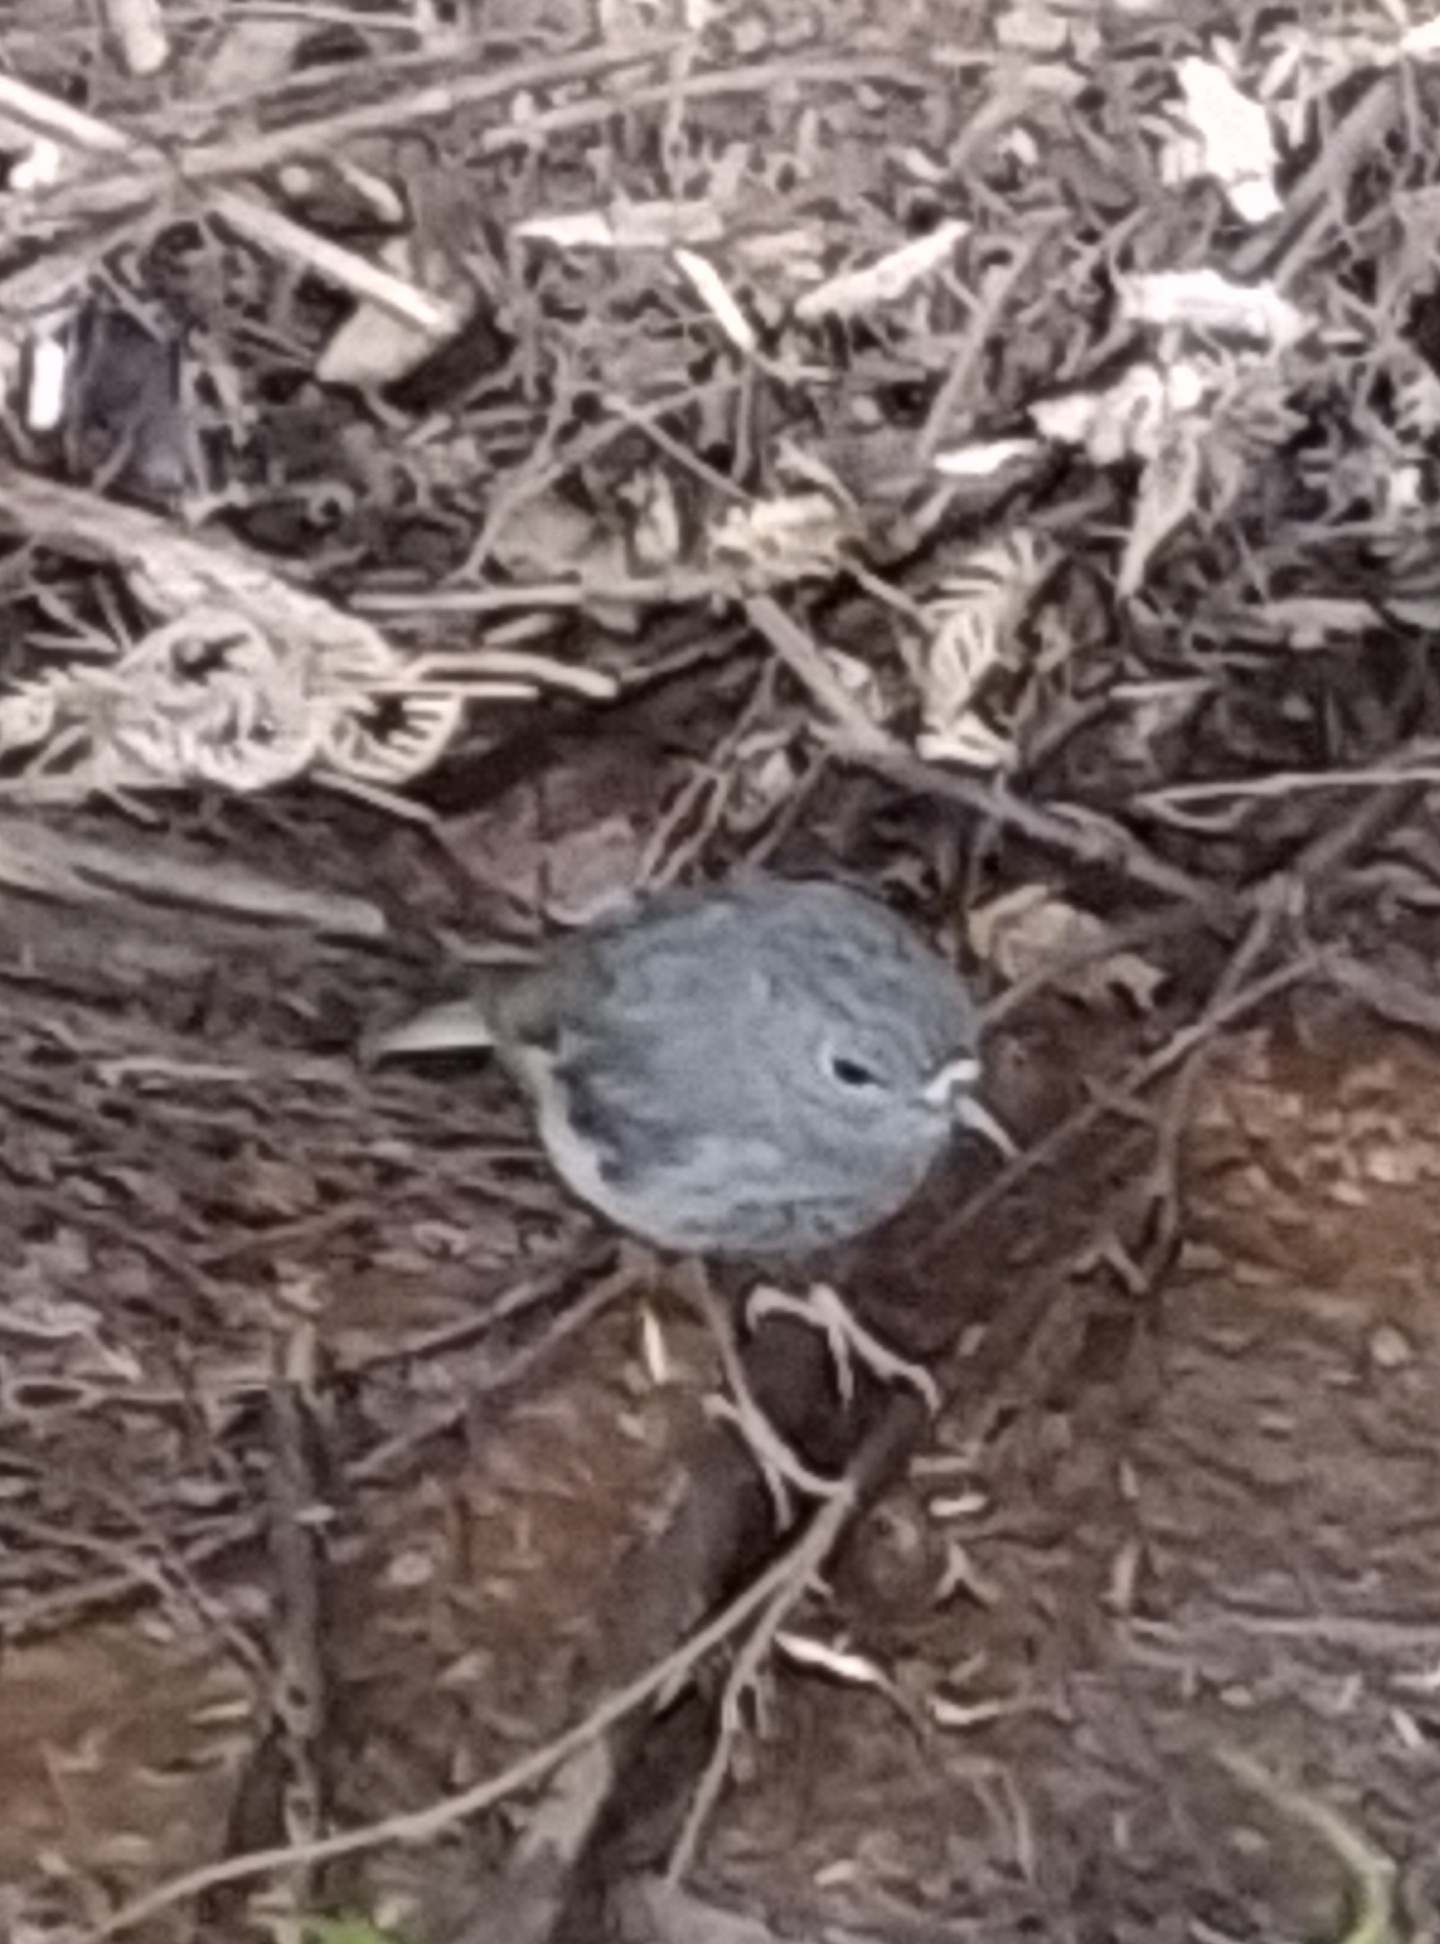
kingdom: Animalia
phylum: Chordata
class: Aves
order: Passeriformes
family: Petroicidae
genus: Petroica
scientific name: Petroica australis
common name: New zealand robin
